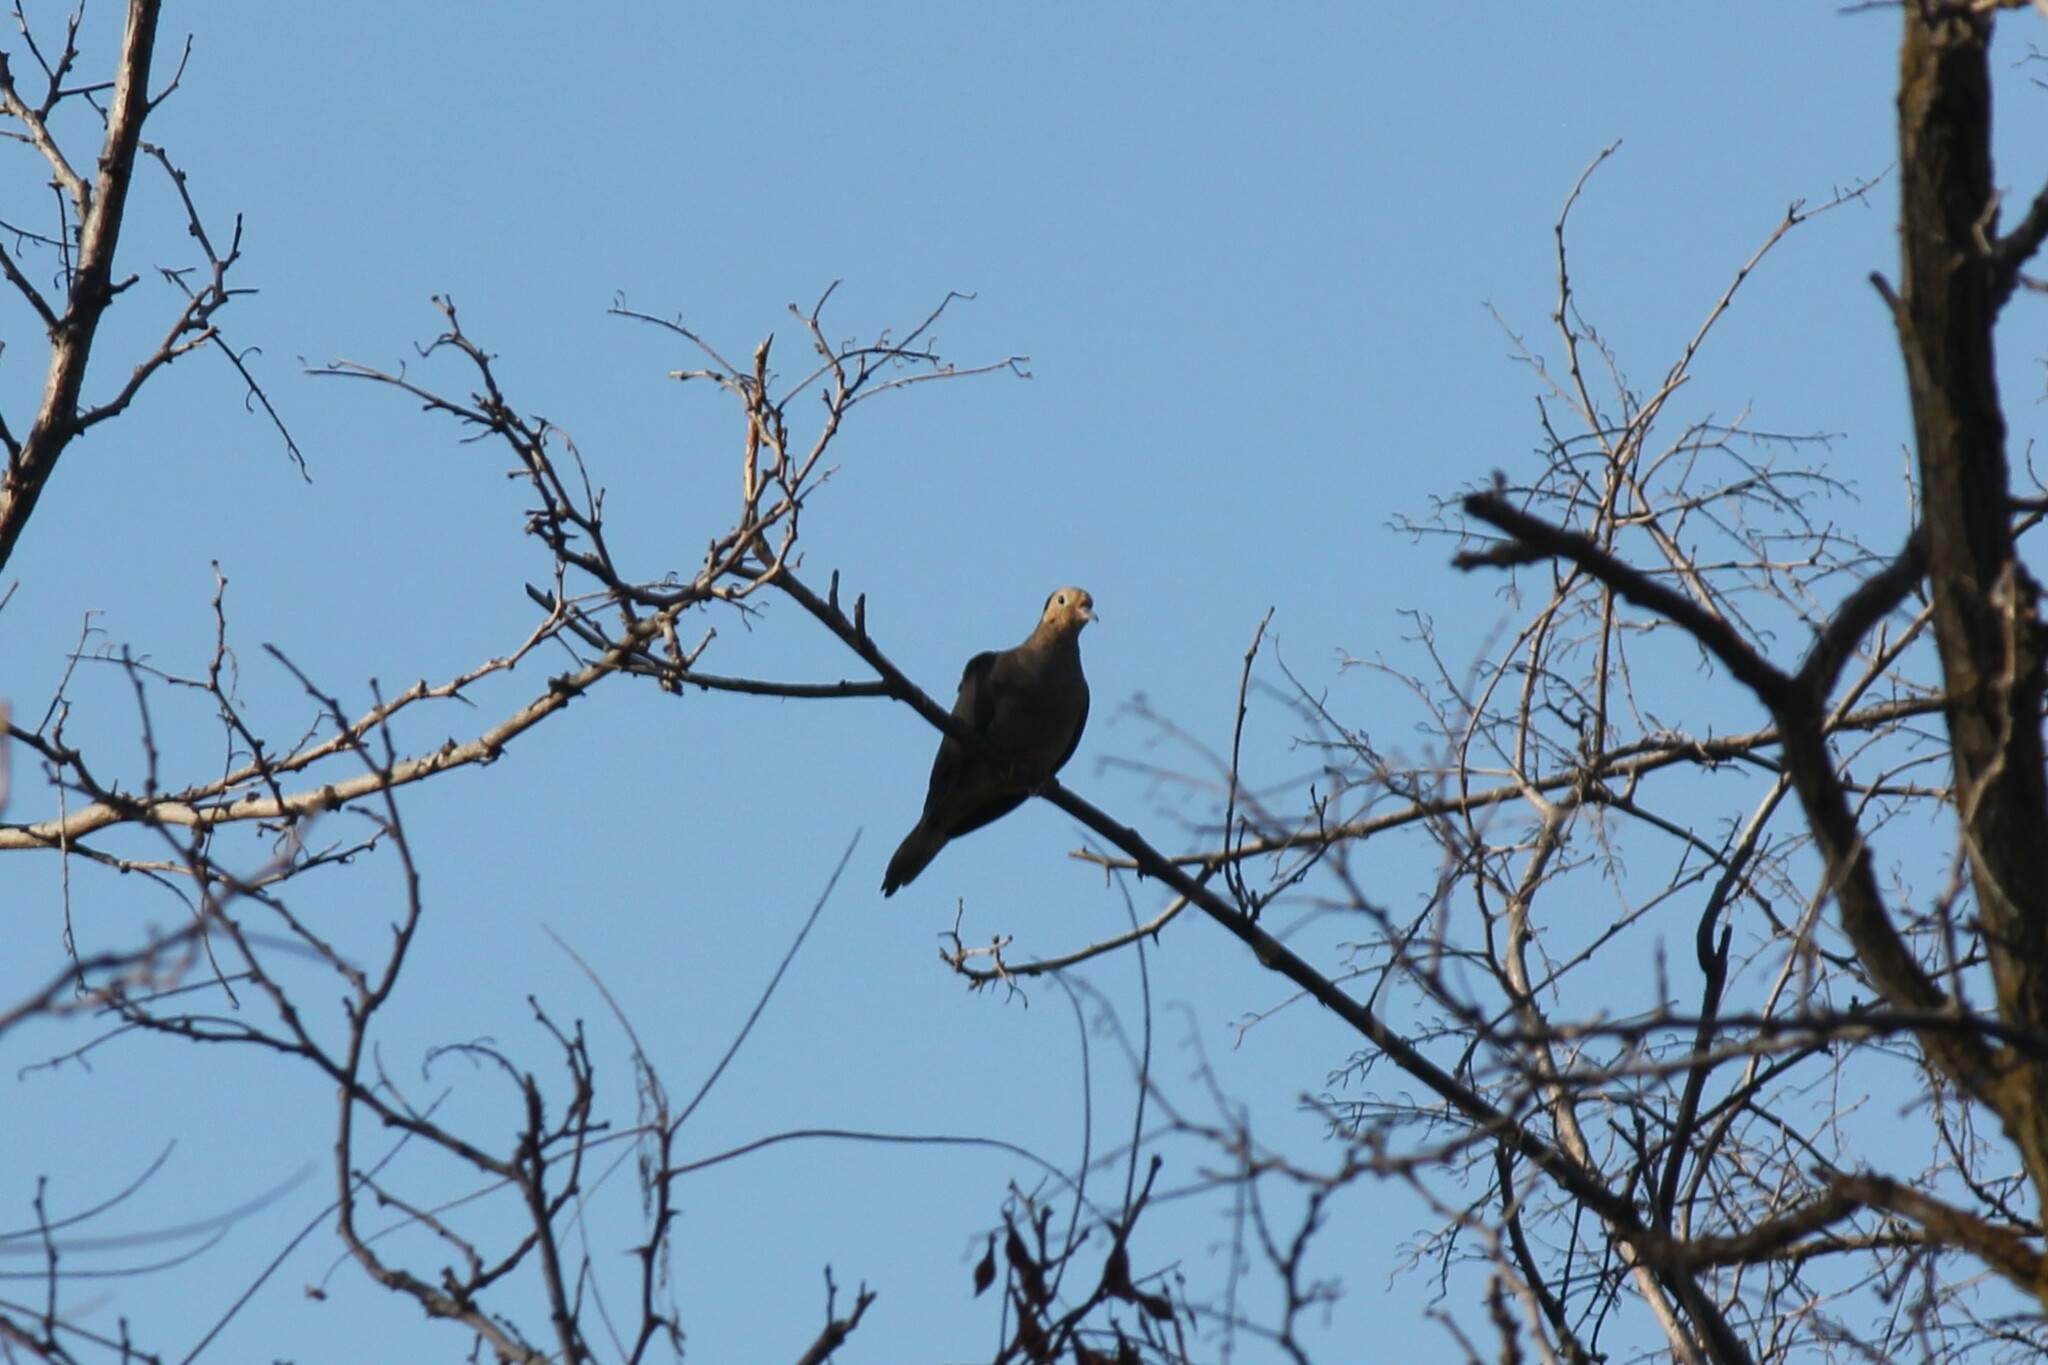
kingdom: Animalia
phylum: Chordata
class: Aves
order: Columbiformes
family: Columbidae
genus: Zenaida
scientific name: Zenaida macroura
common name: Mourning dove
